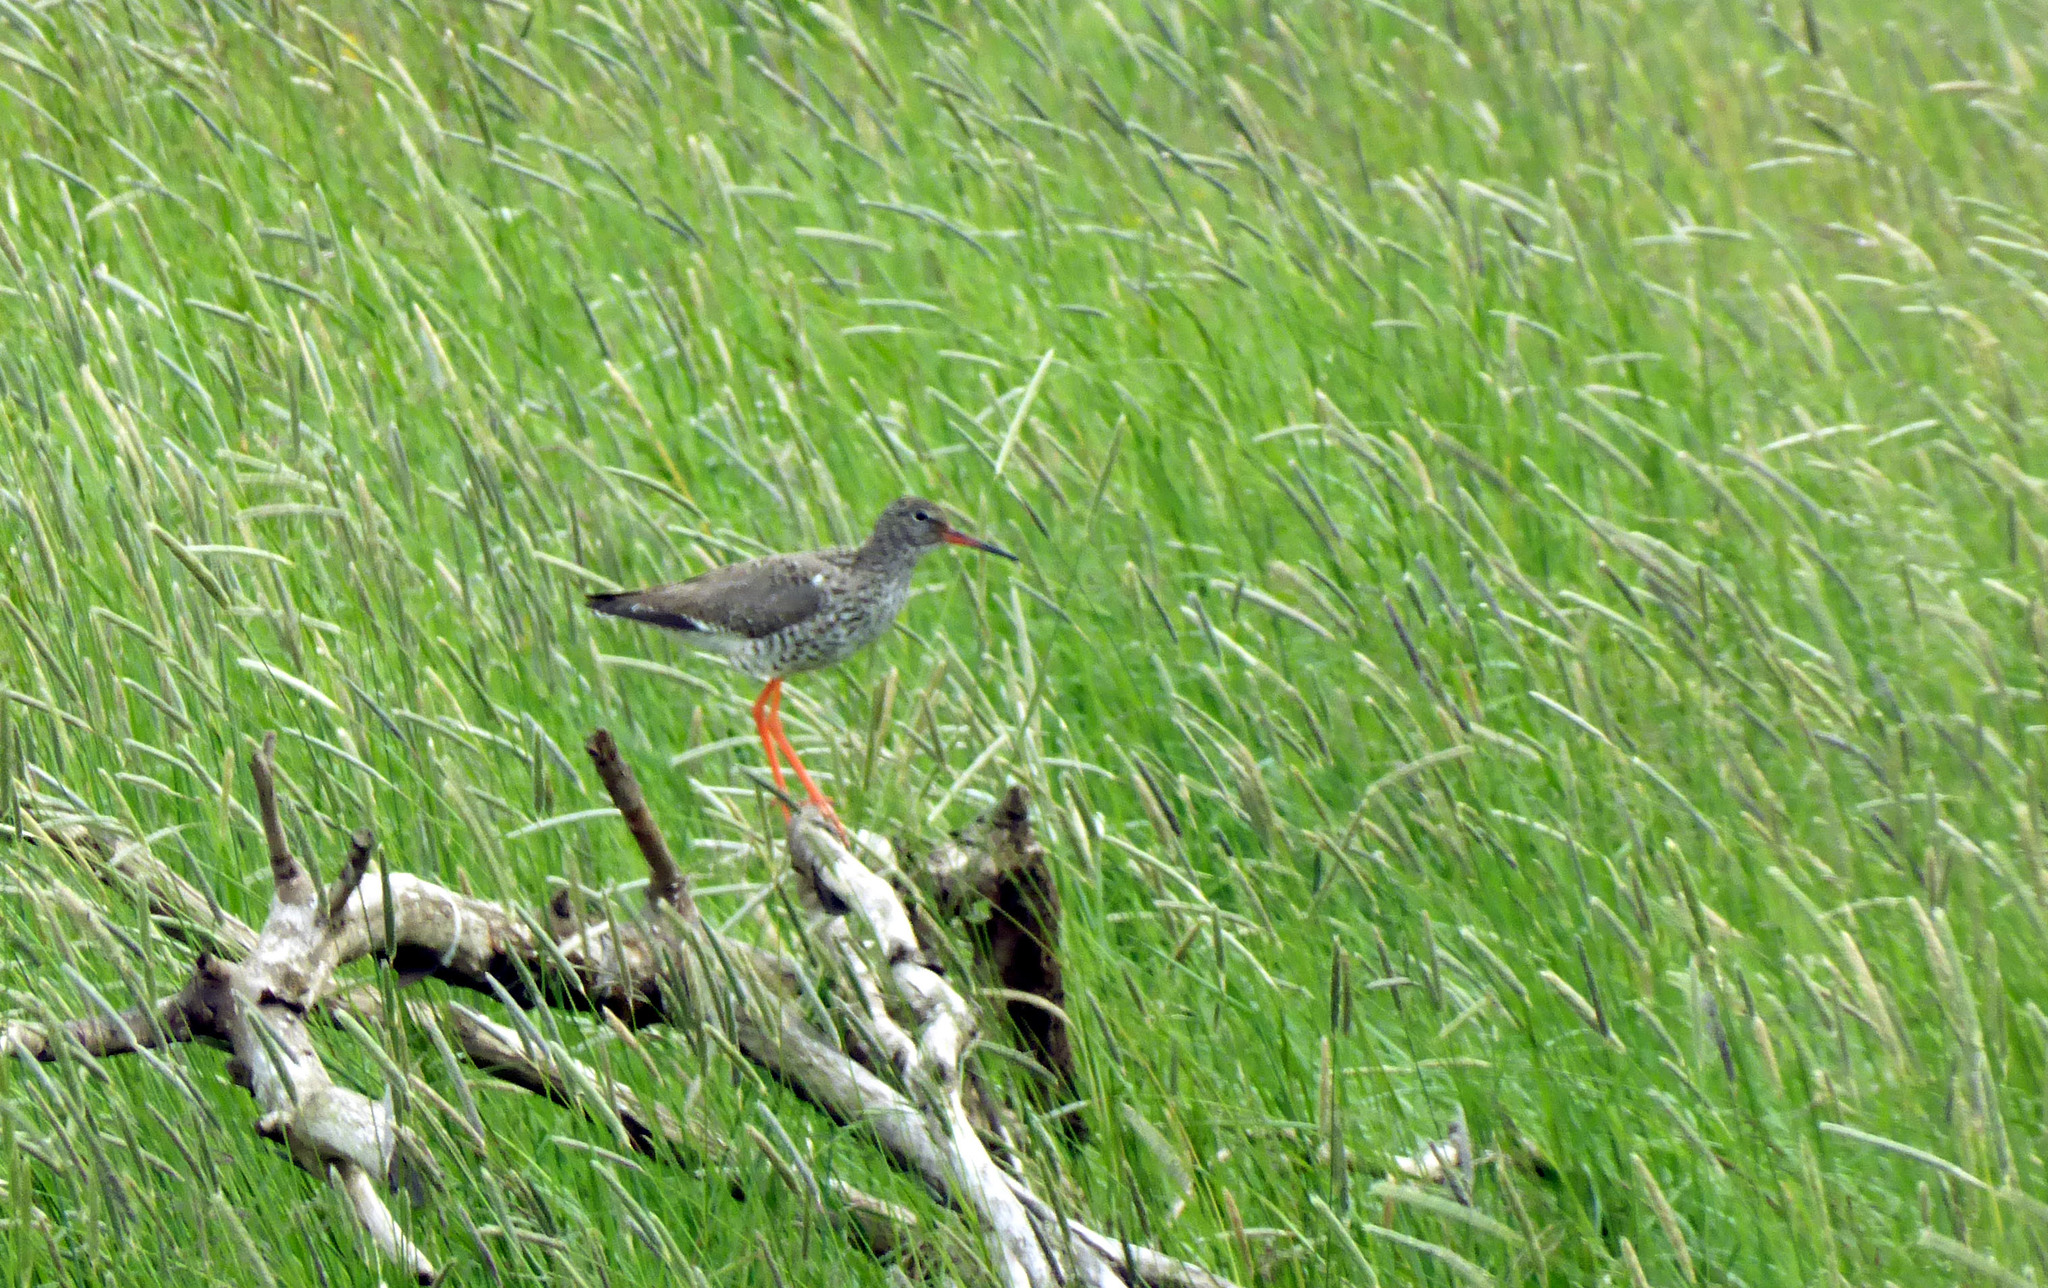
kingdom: Animalia
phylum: Chordata
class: Aves
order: Charadriiformes
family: Scolopacidae
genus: Tringa
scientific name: Tringa totanus
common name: Common redshank
